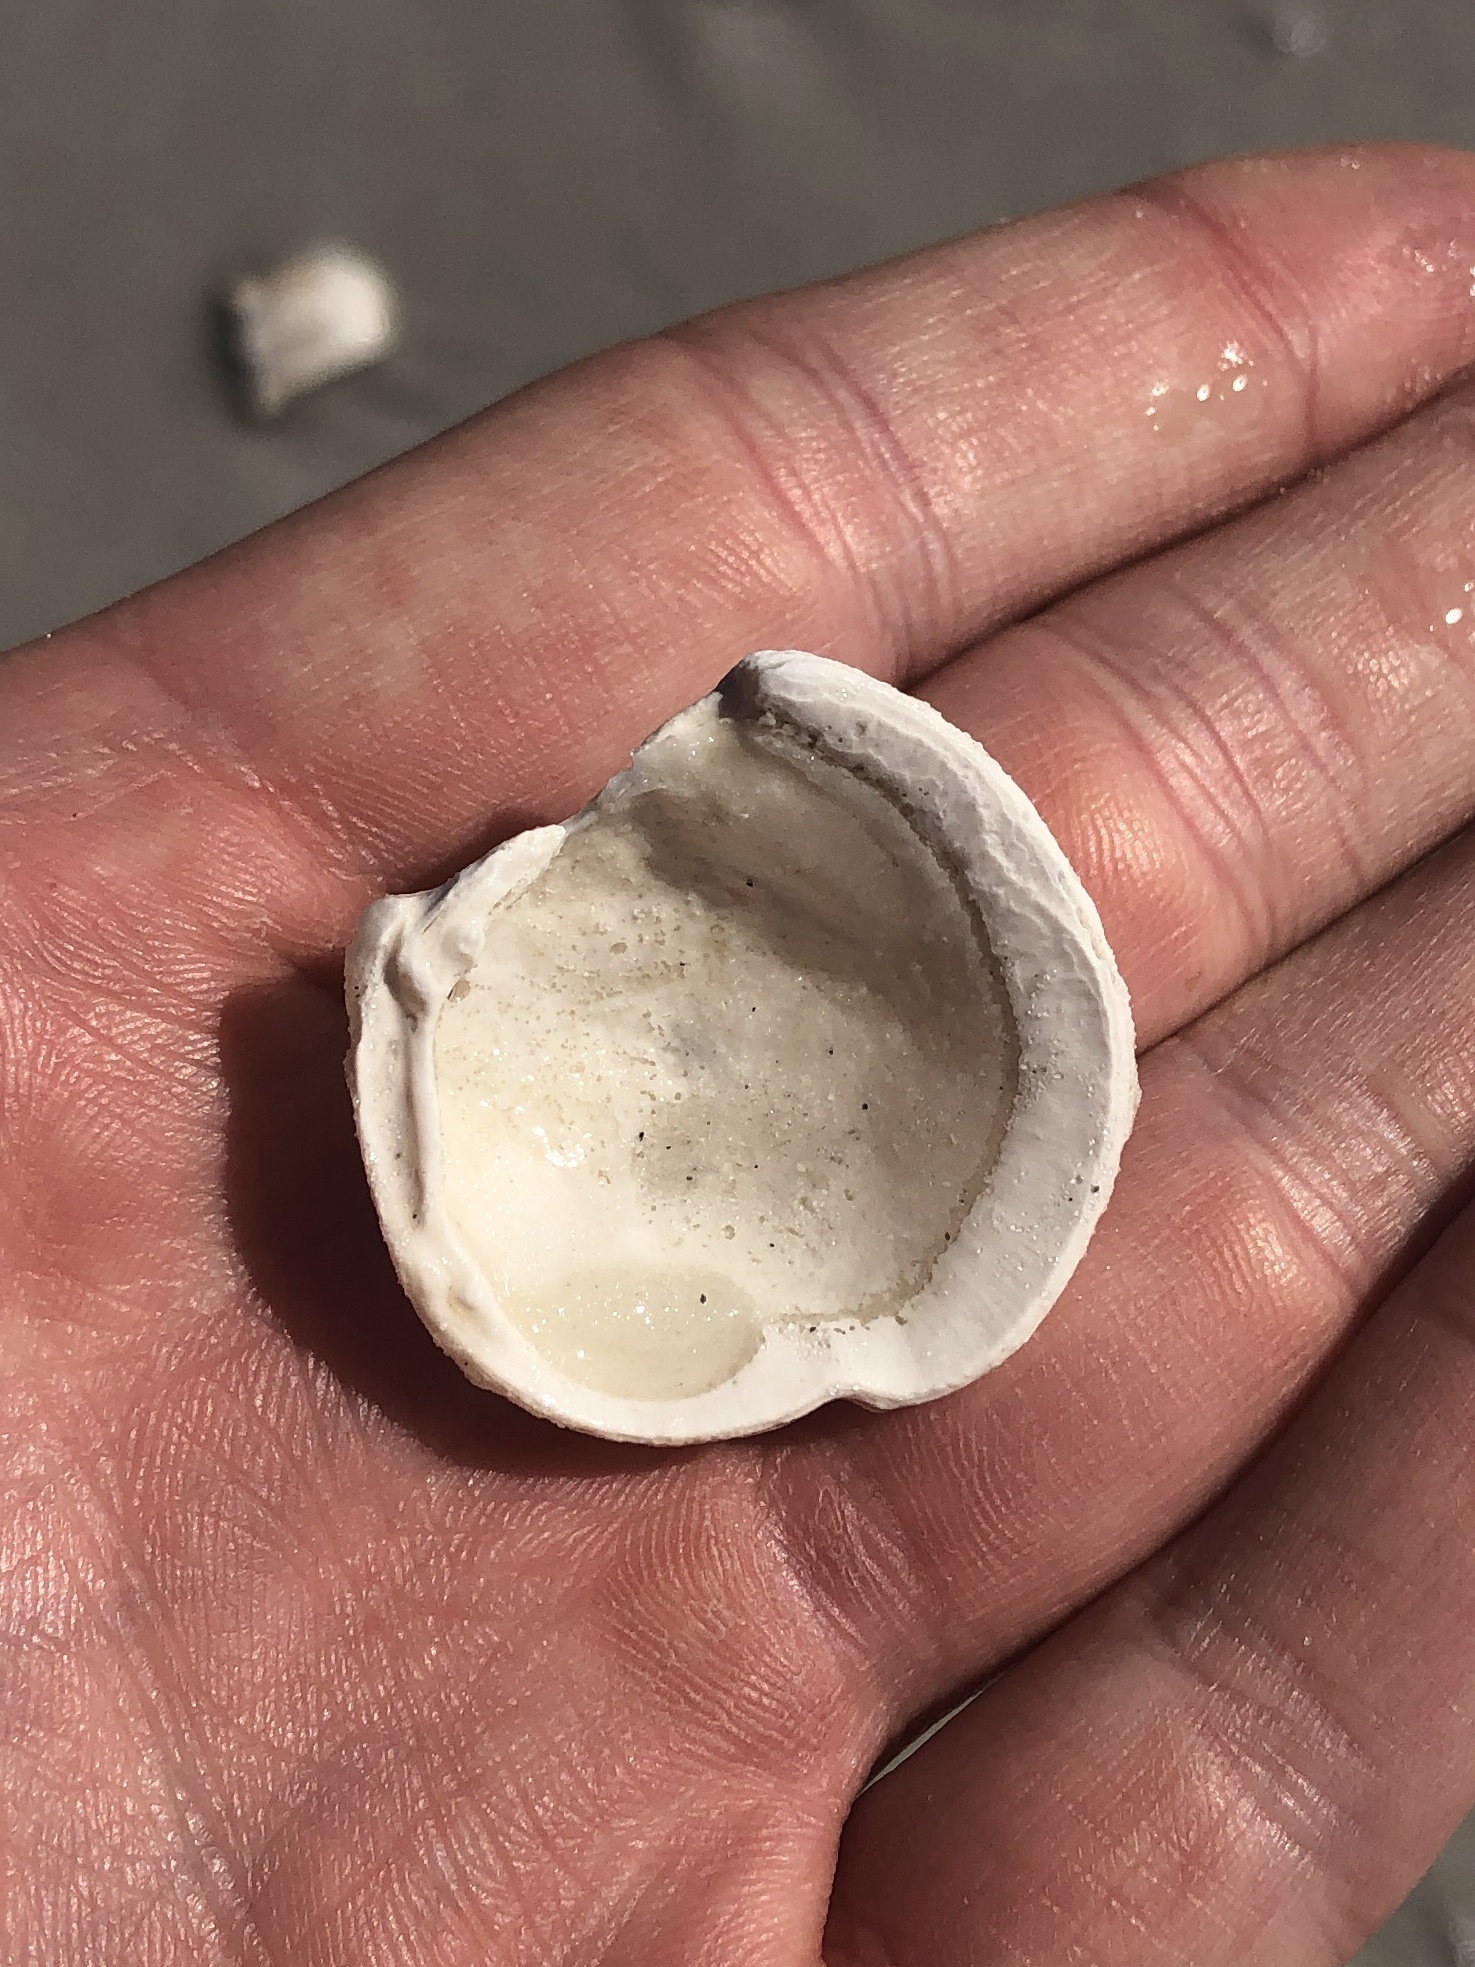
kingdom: Animalia
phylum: Mollusca
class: Bivalvia
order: Lucinida
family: Lucinidae
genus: Lucina
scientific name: Lucina pensylvanica
